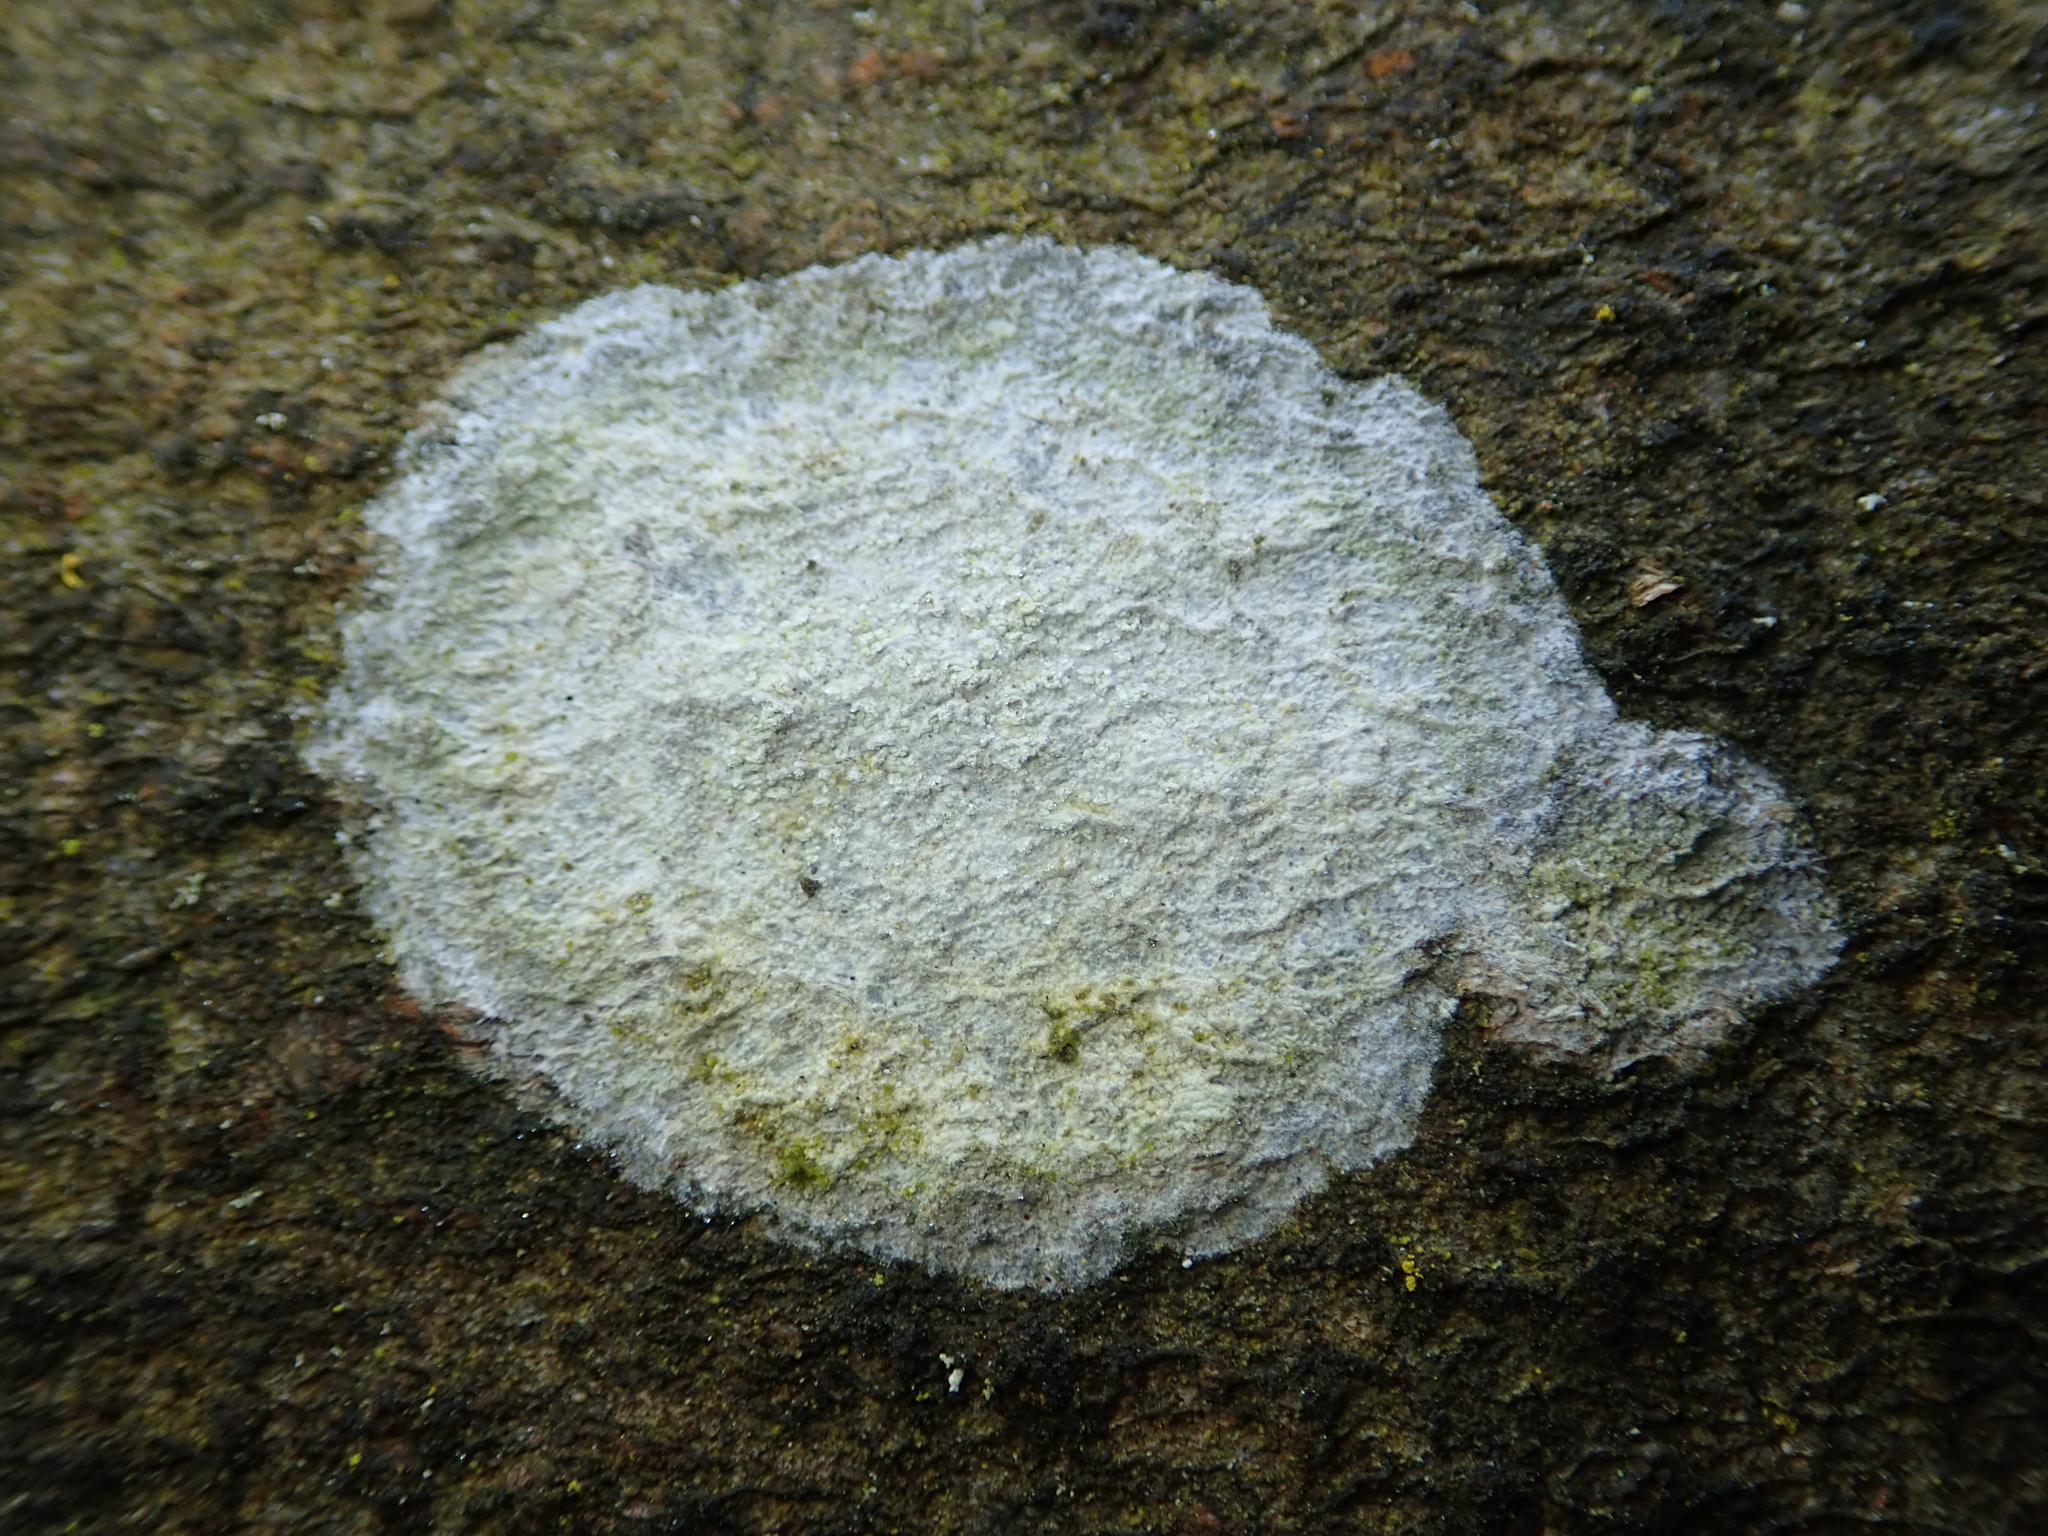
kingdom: Fungi
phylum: Ascomycota
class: Lecanoromycetes
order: Ostropales
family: Phlyctidaceae
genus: Phlyctis
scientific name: Phlyctis argena
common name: Whitewash lichen
